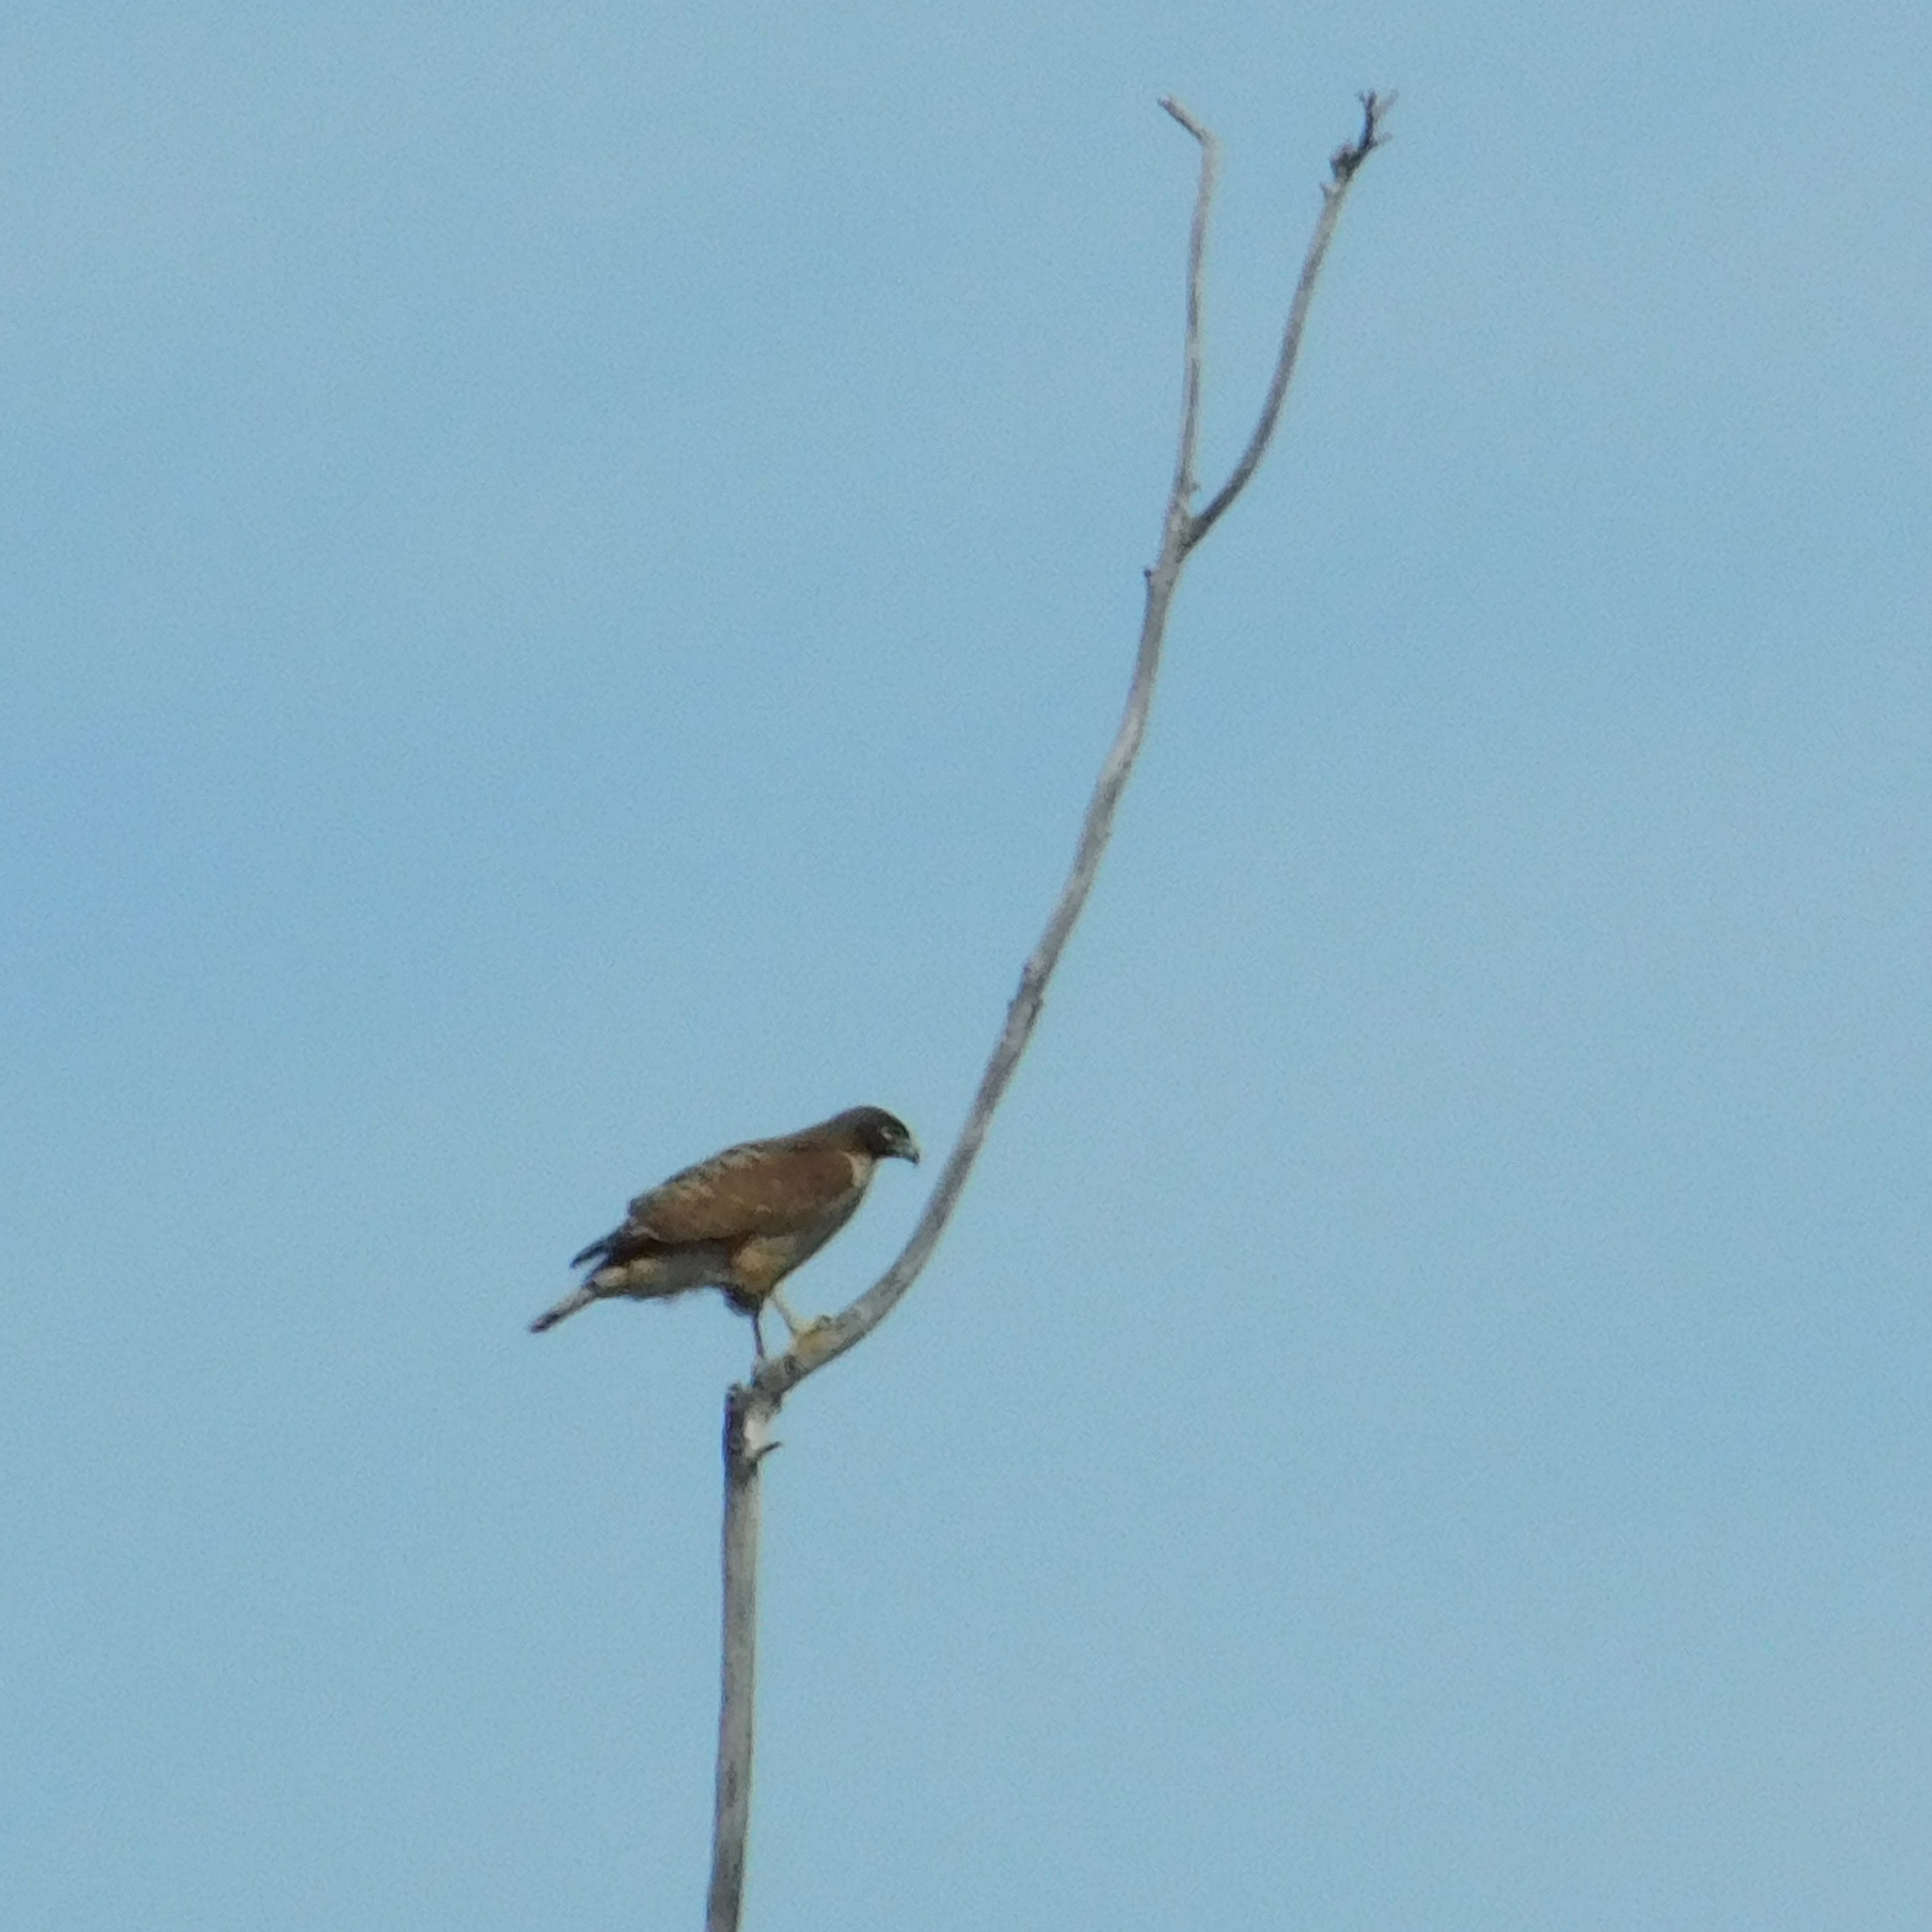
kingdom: Animalia
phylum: Chordata
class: Aves
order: Accipitriformes
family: Accipitridae
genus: Rupornis
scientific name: Rupornis magnirostris
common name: Roadside hawk
